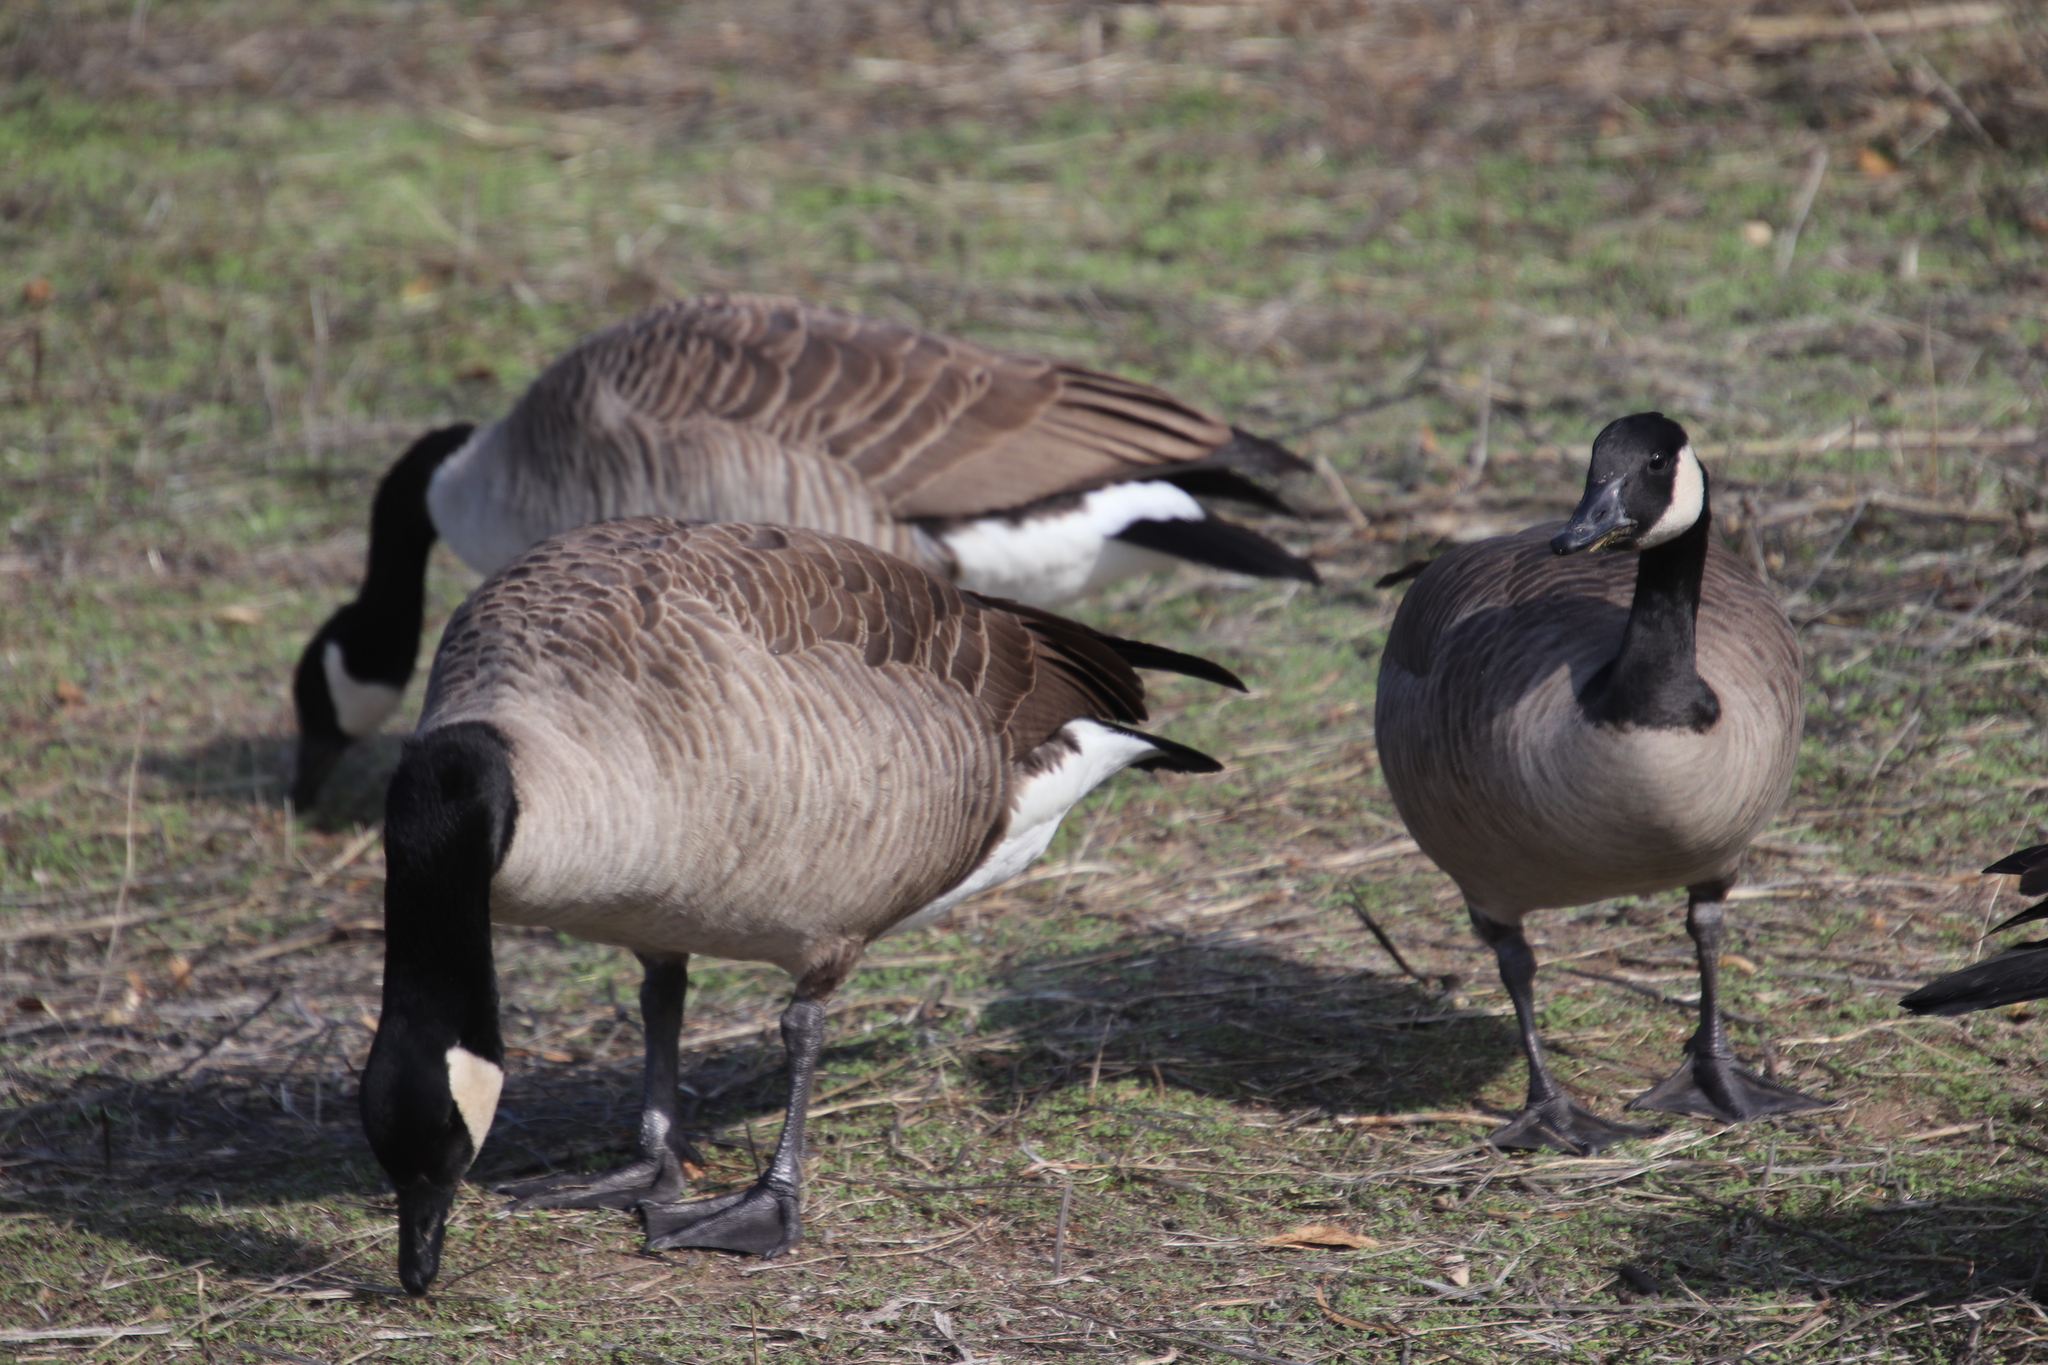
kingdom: Animalia
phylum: Chordata
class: Aves
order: Anseriformes
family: Anatidae
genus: Branta
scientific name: Branta canadensis
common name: Canada goose
